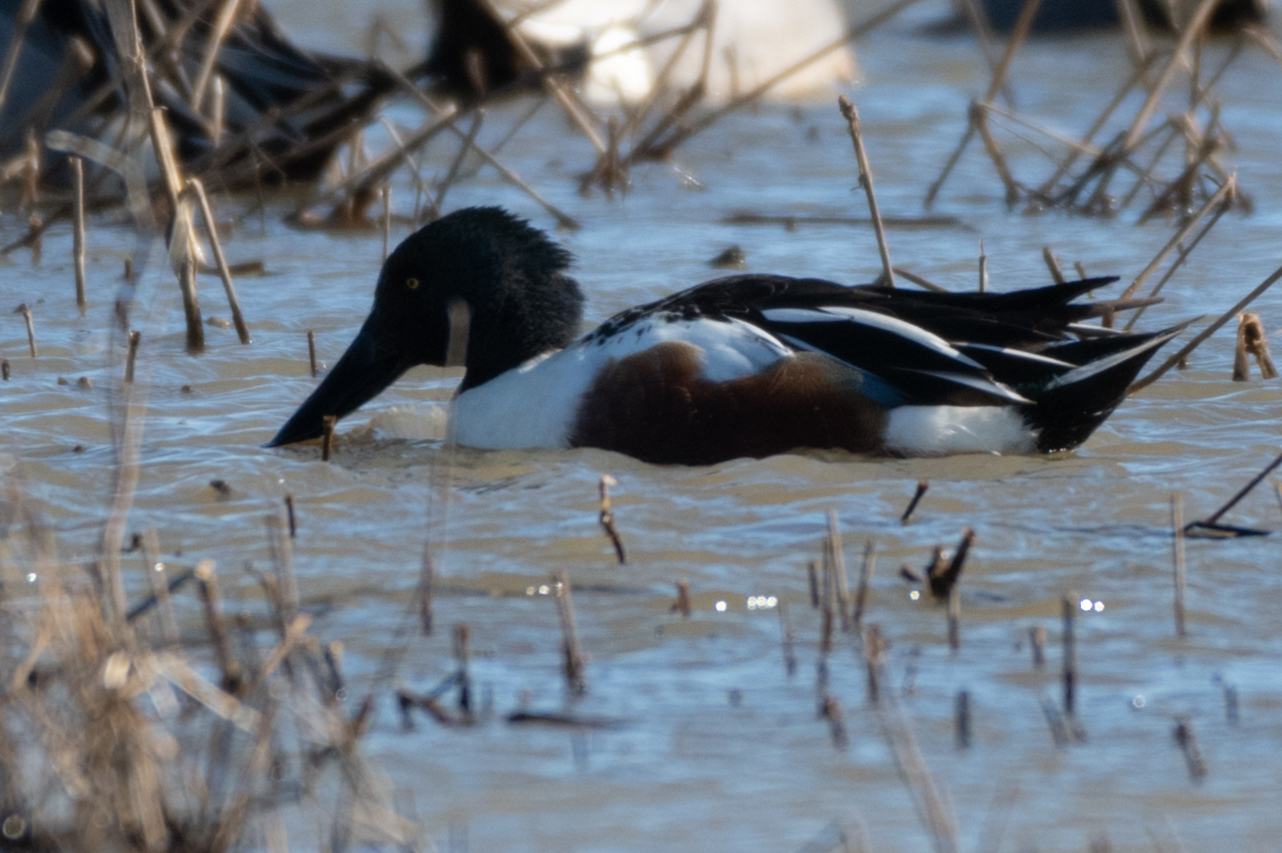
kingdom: Animalia
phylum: Chordata
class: Aves
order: Anseriformes
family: Anatidae
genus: Spatula
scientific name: Spatula clypeata
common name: Northern shoveler
